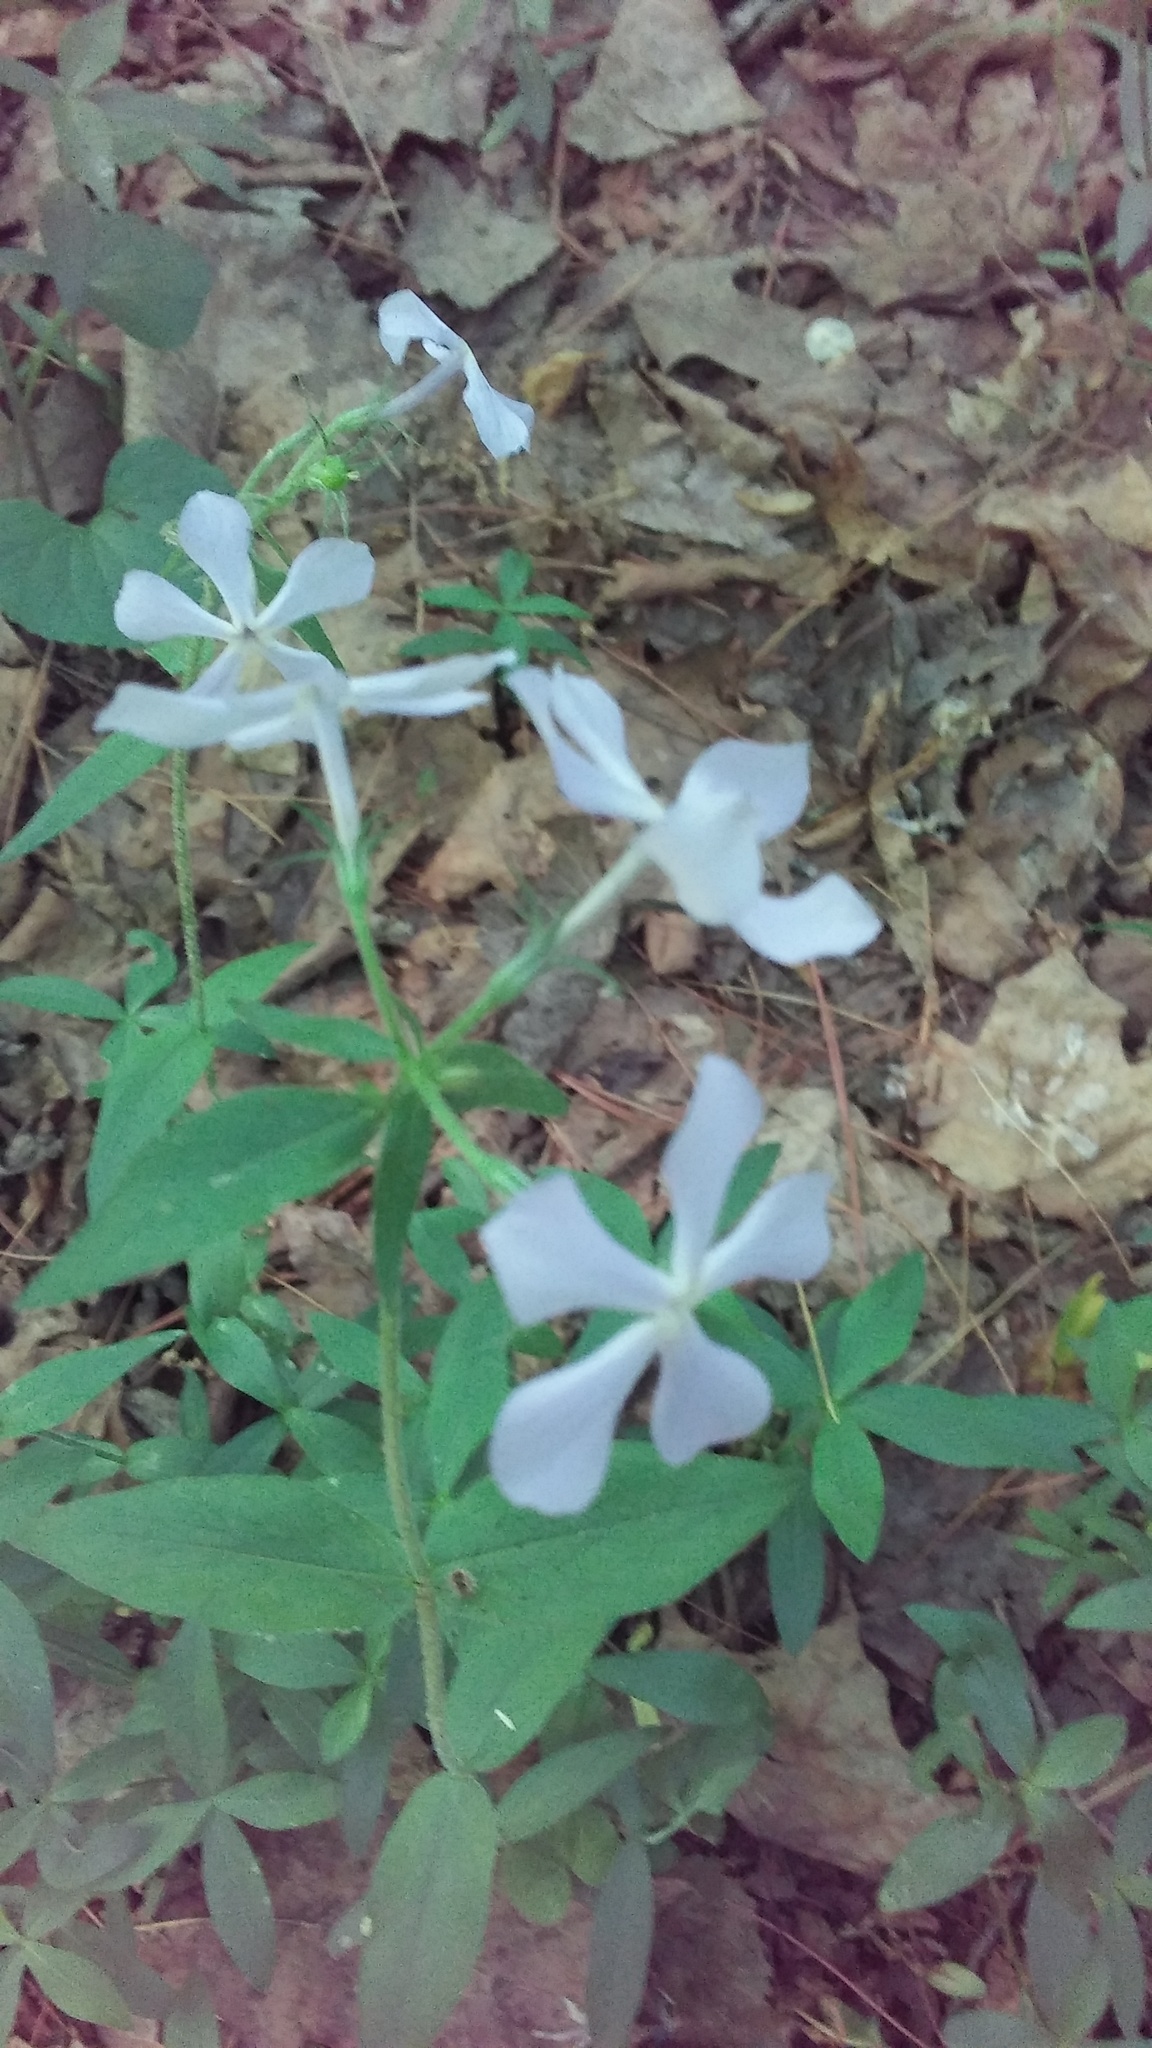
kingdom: Plantae
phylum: Tracheophyta
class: Magnoliopsida
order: Ericales
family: Polemoniaceae
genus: Phlox
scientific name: Phlox divaricata
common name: Blue phlox
